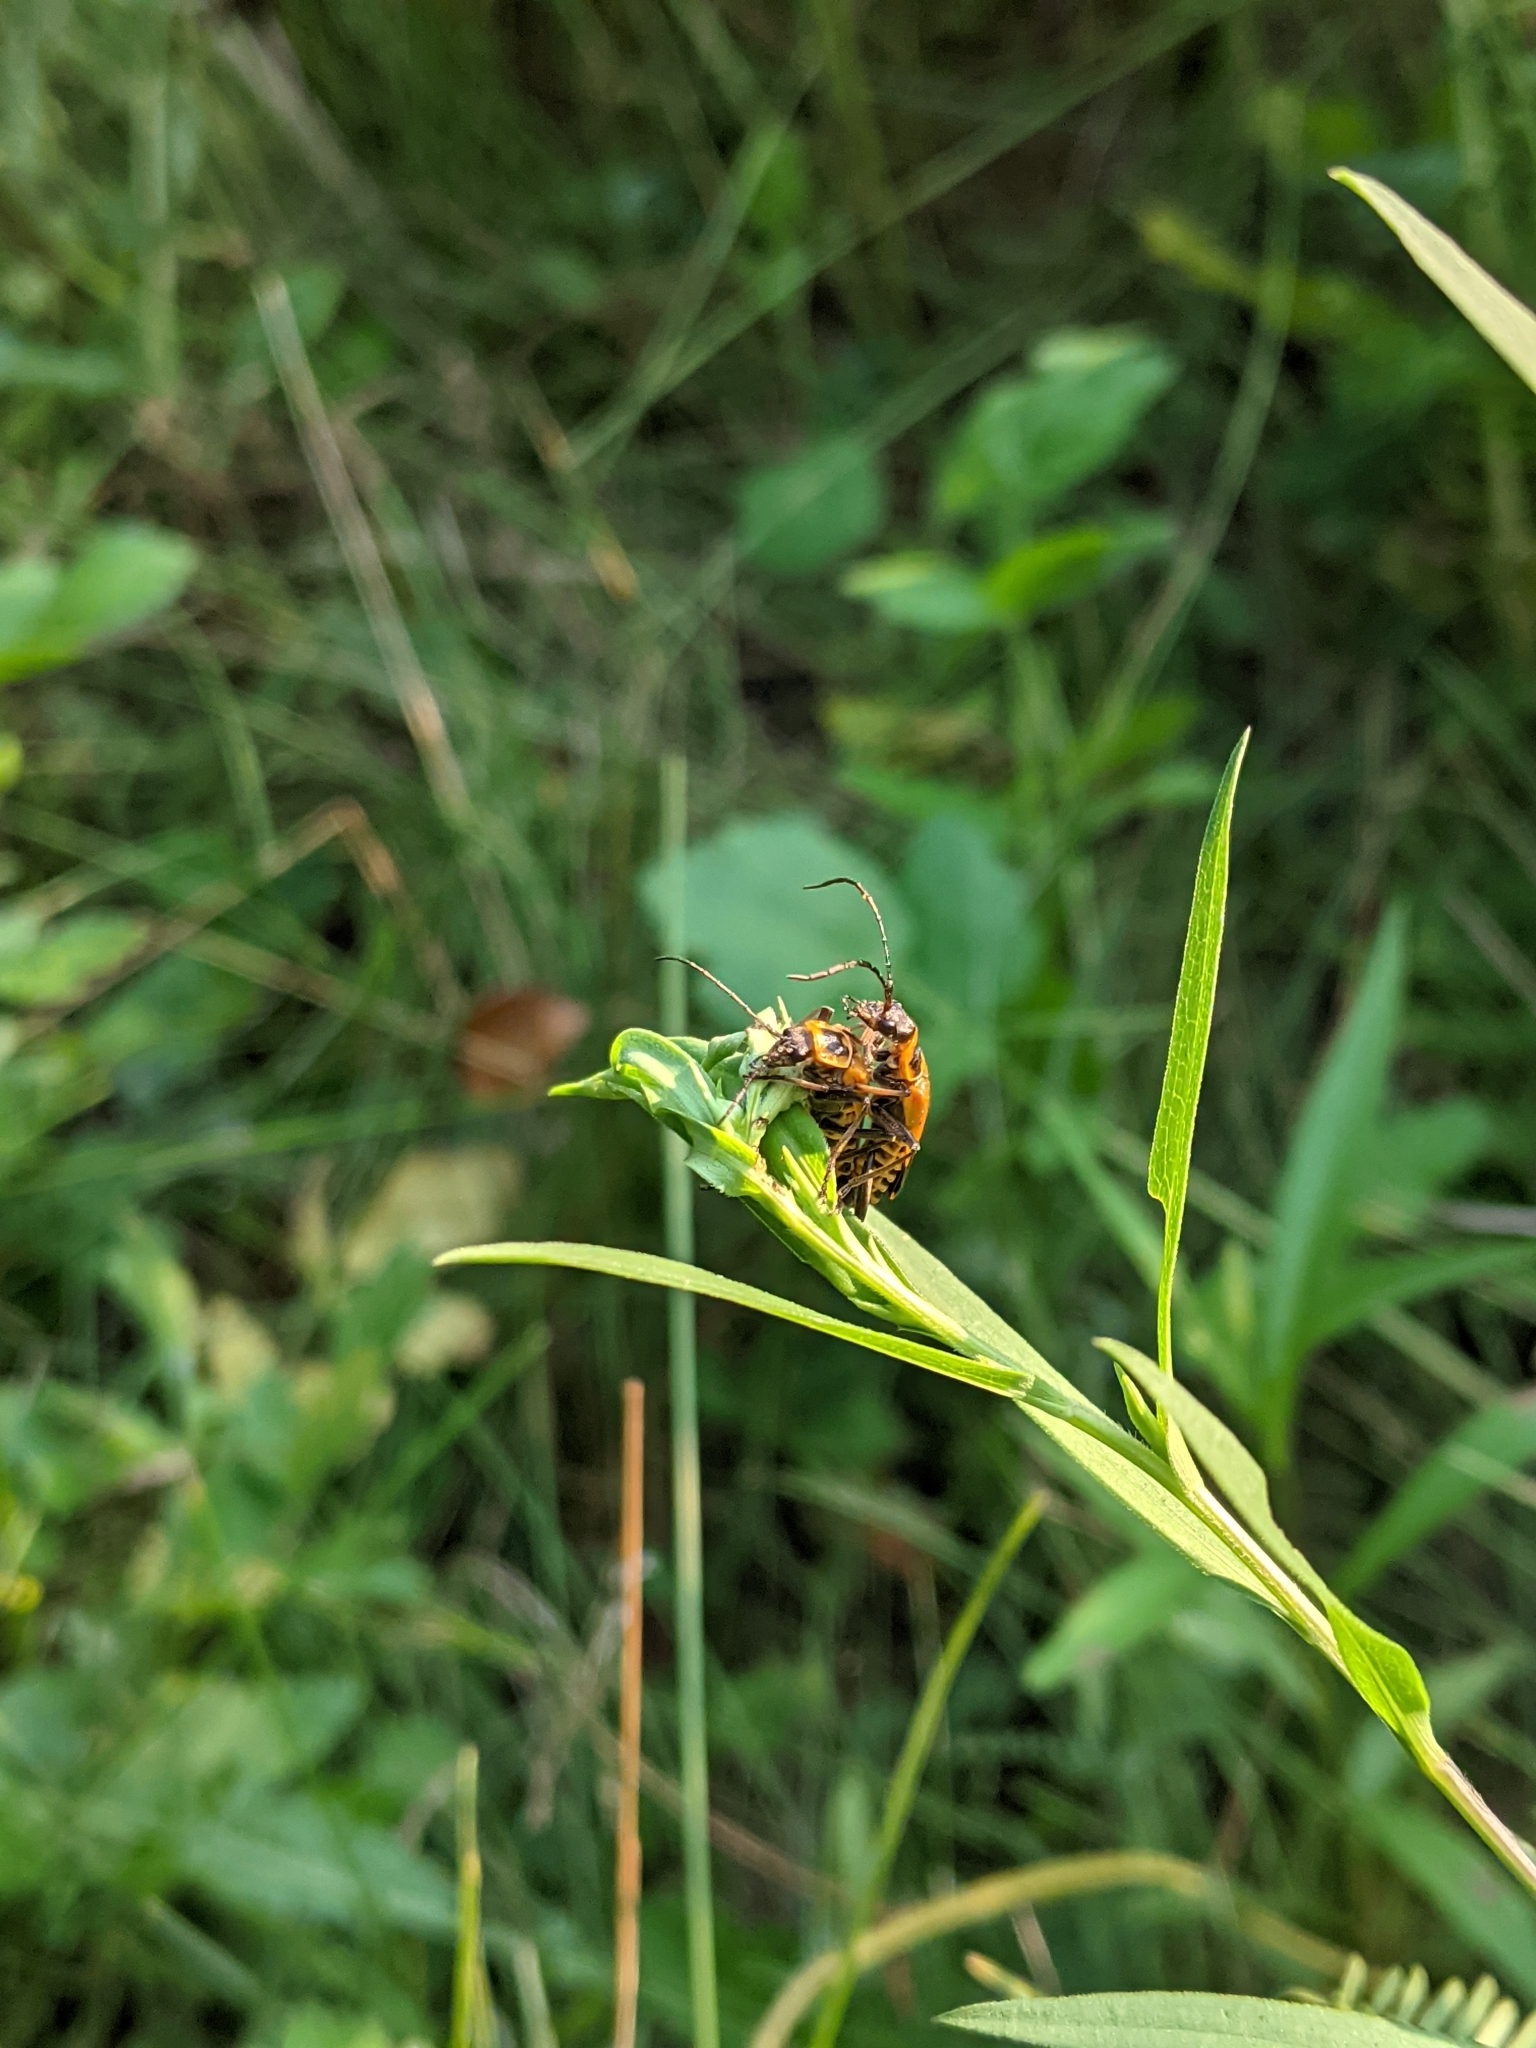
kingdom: Animalia
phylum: Arthropoda
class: Insecta
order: Coleoptera
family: Cantharidae
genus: Chauliognathus
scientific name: Chauliognathus pensylvanicus
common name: Goldenrod soldier beetle
